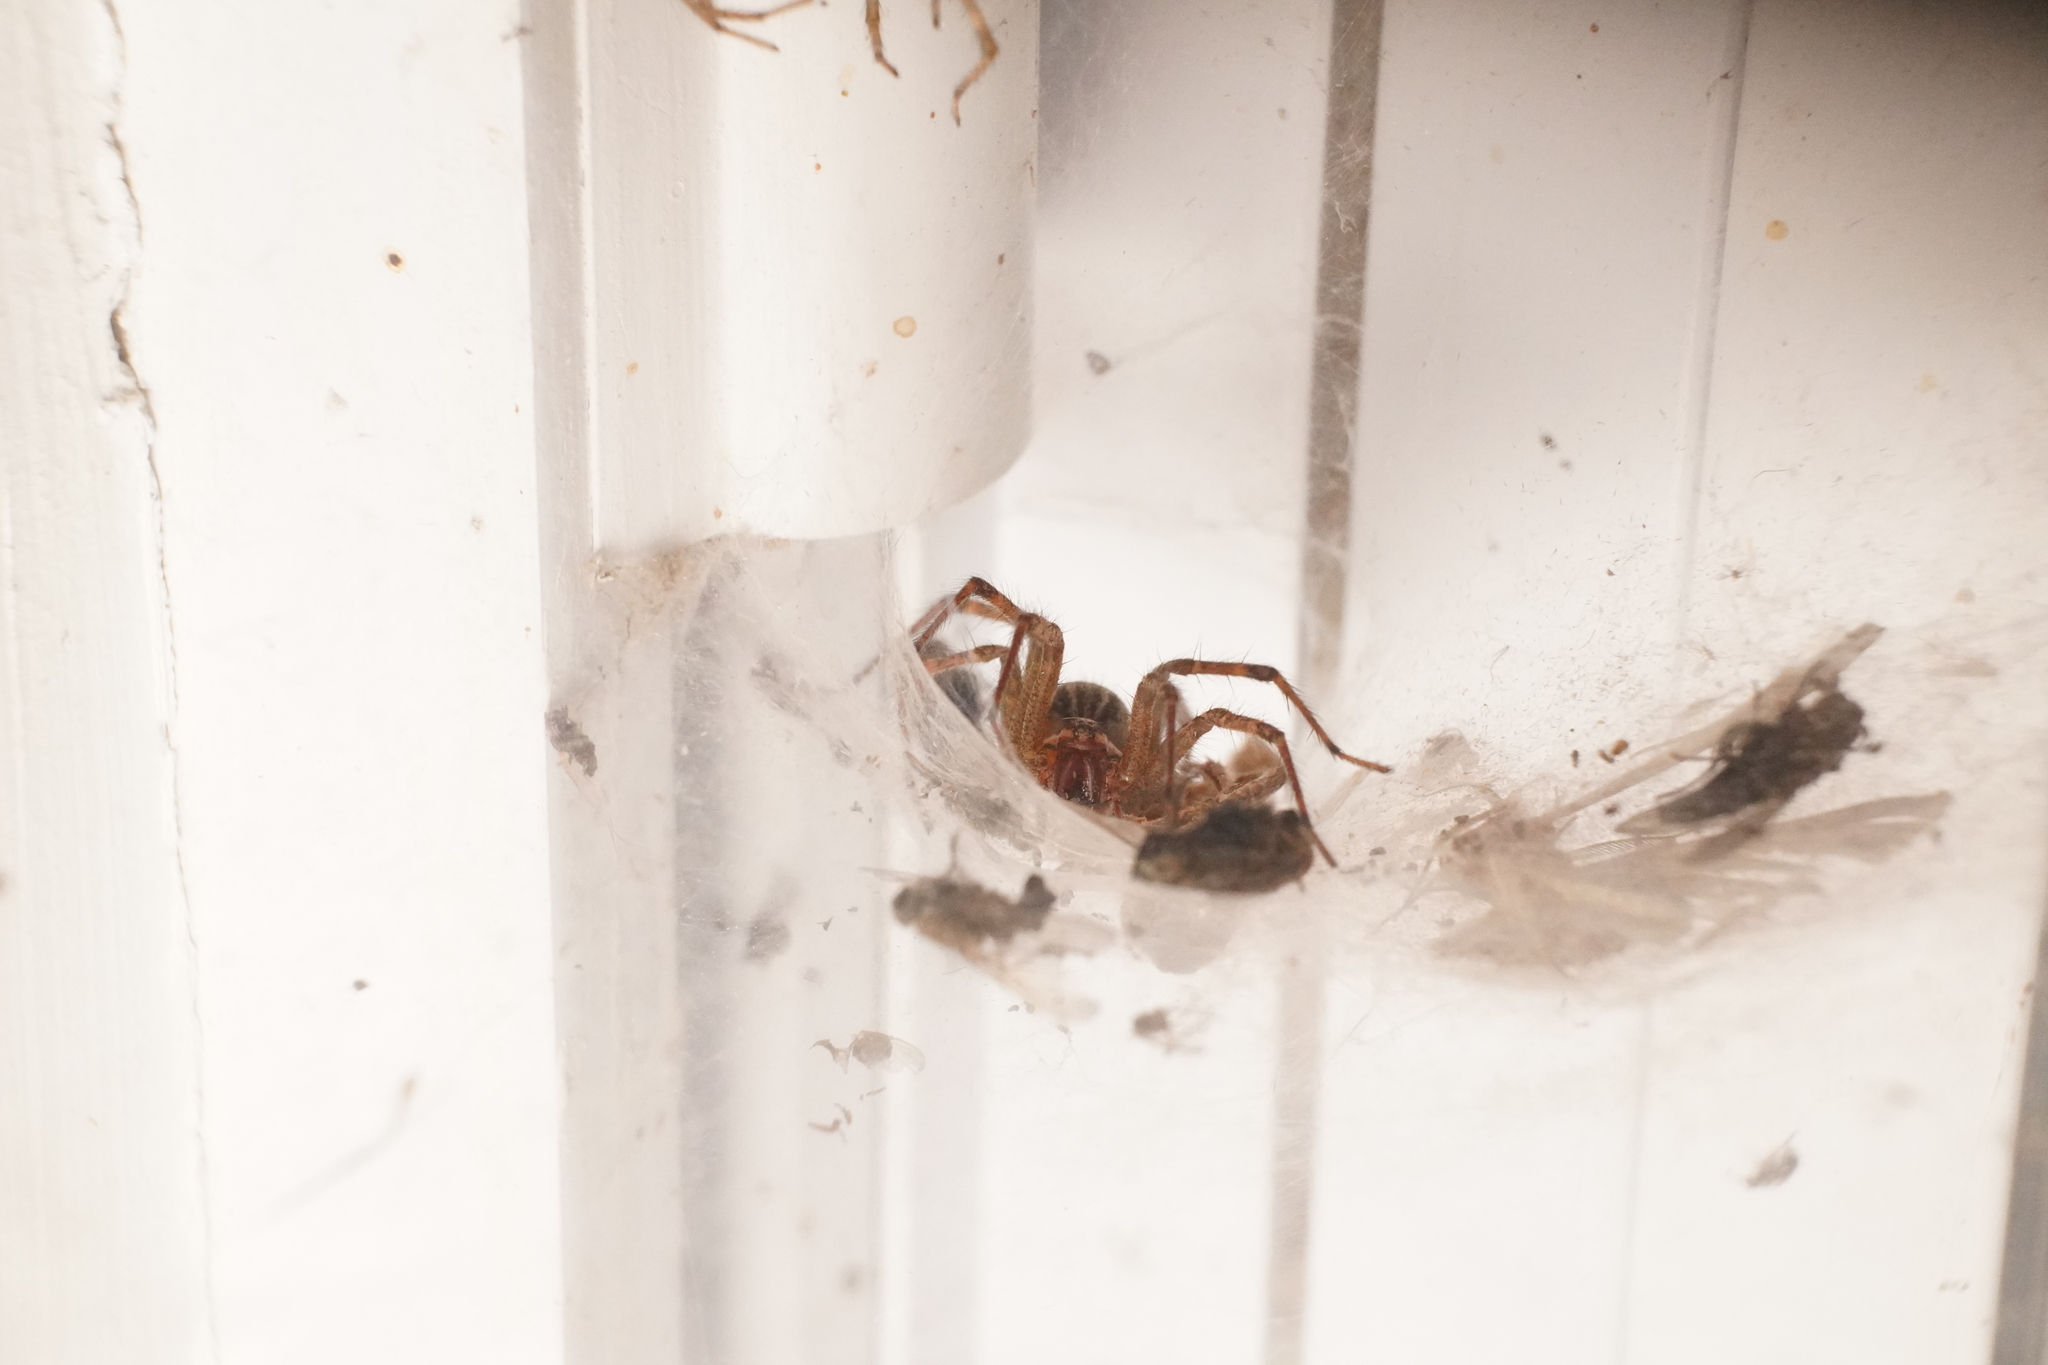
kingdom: Animalia
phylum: Arthropoda
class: Arachnida
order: Araneae
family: Agelenidae
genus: Agelenopsis
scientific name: Agelenopsis
